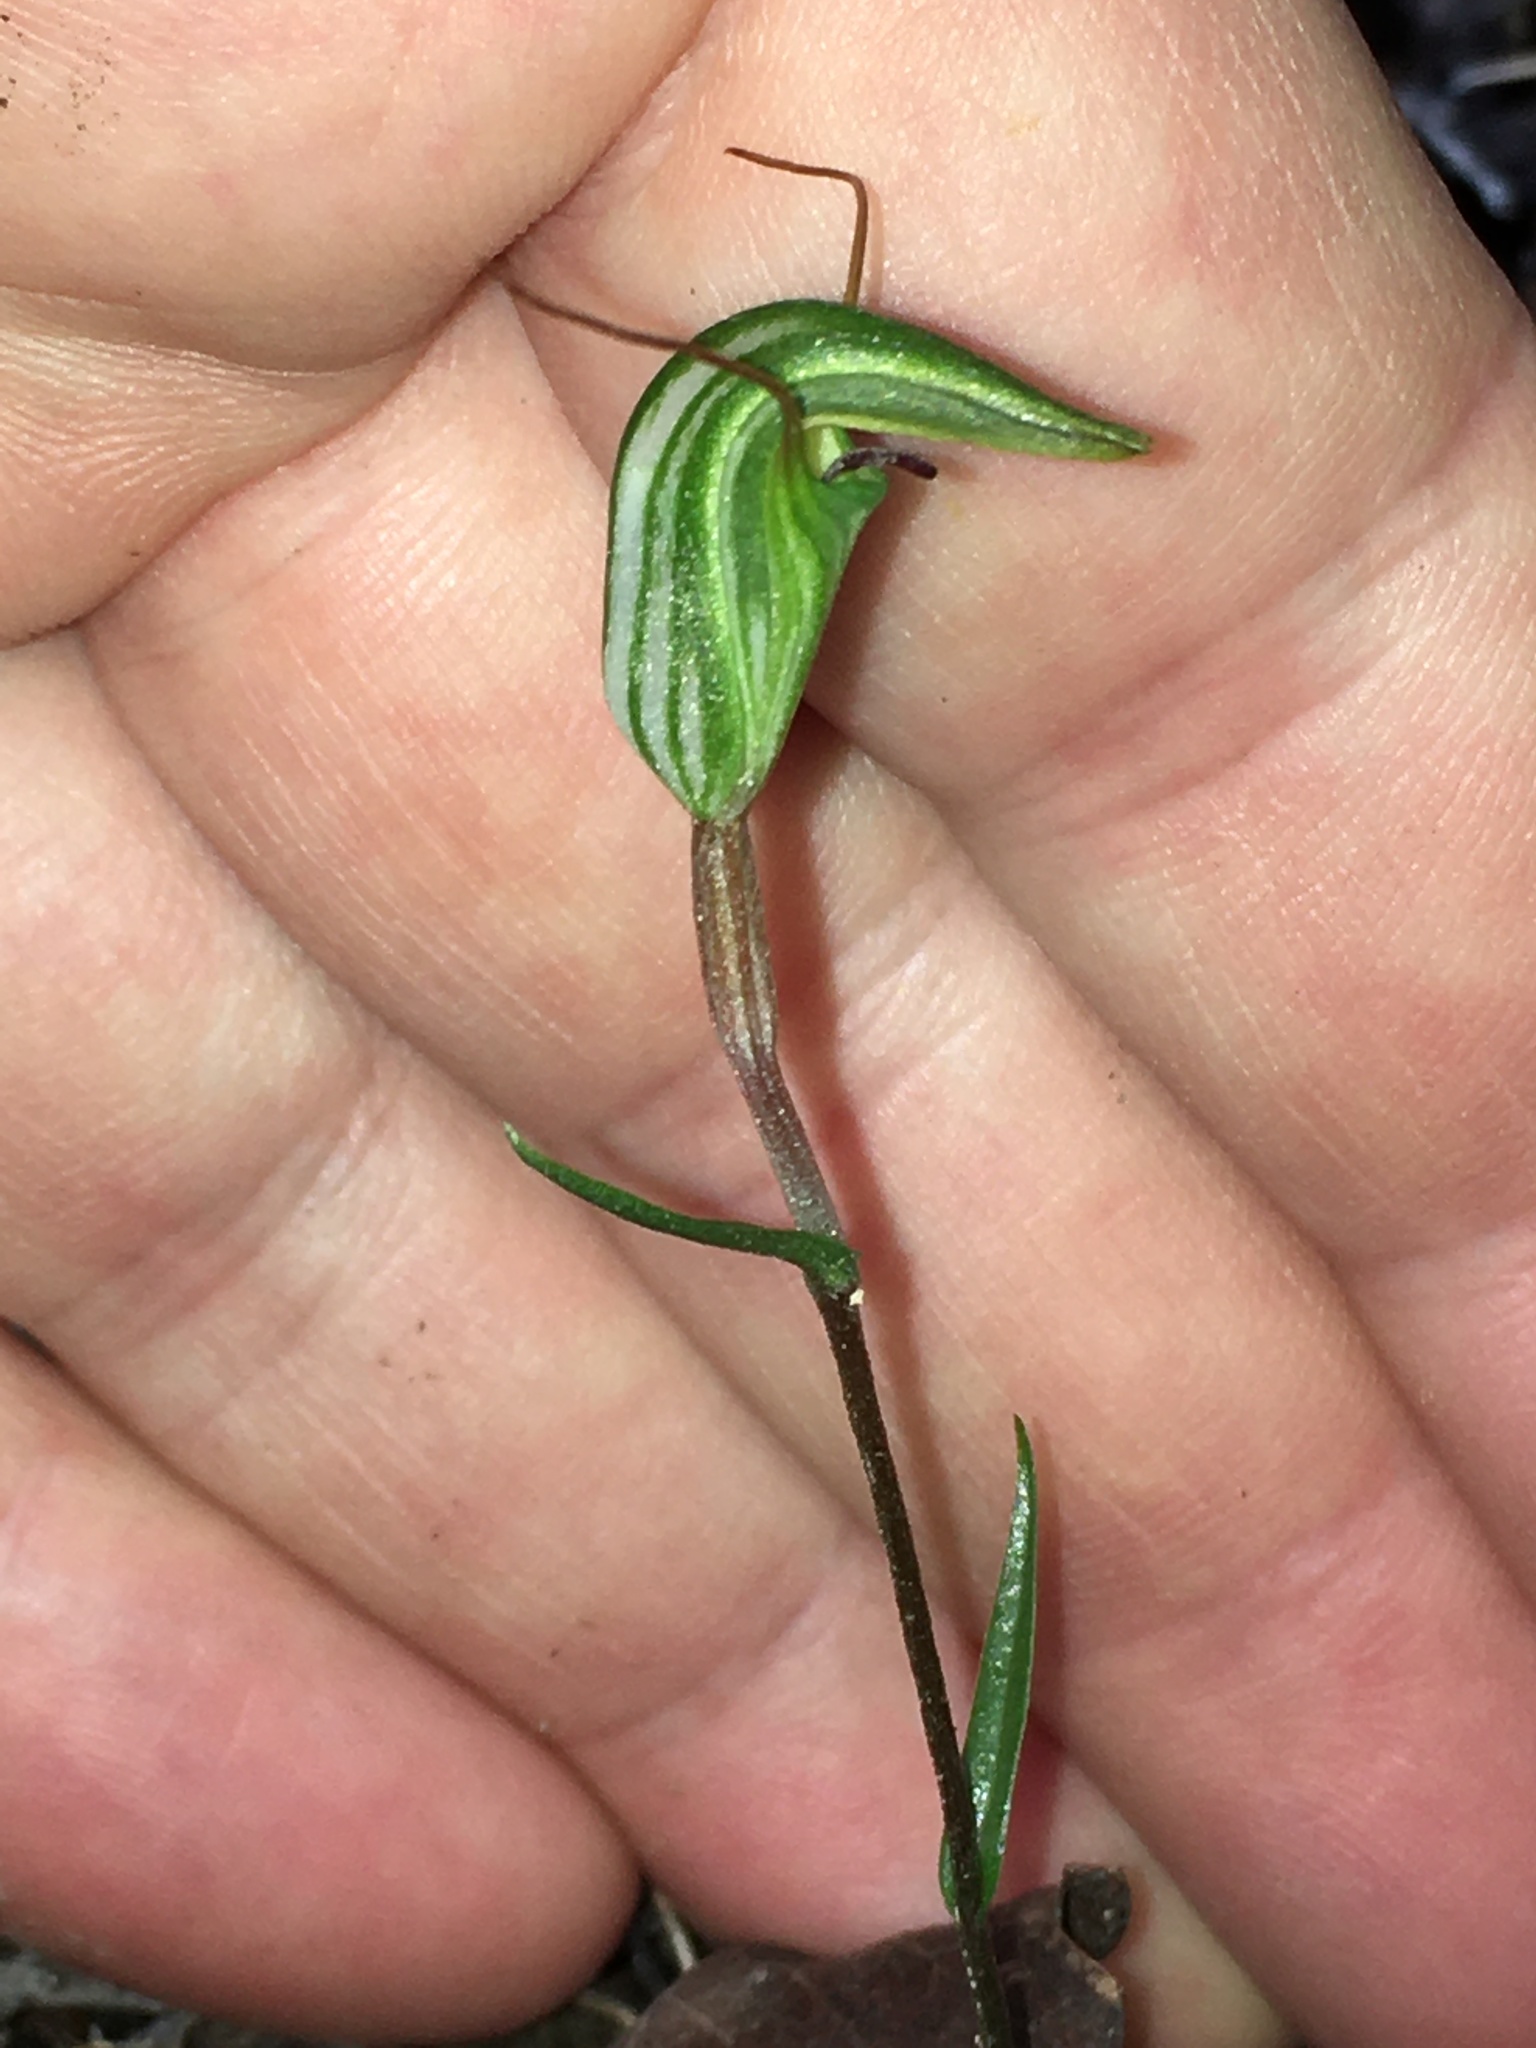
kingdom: Plantae
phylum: Tracheophyta
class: Liliopsida
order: Asparagales
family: Orchidaceae
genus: Pterostylis
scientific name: Pterostylis trullifolia
